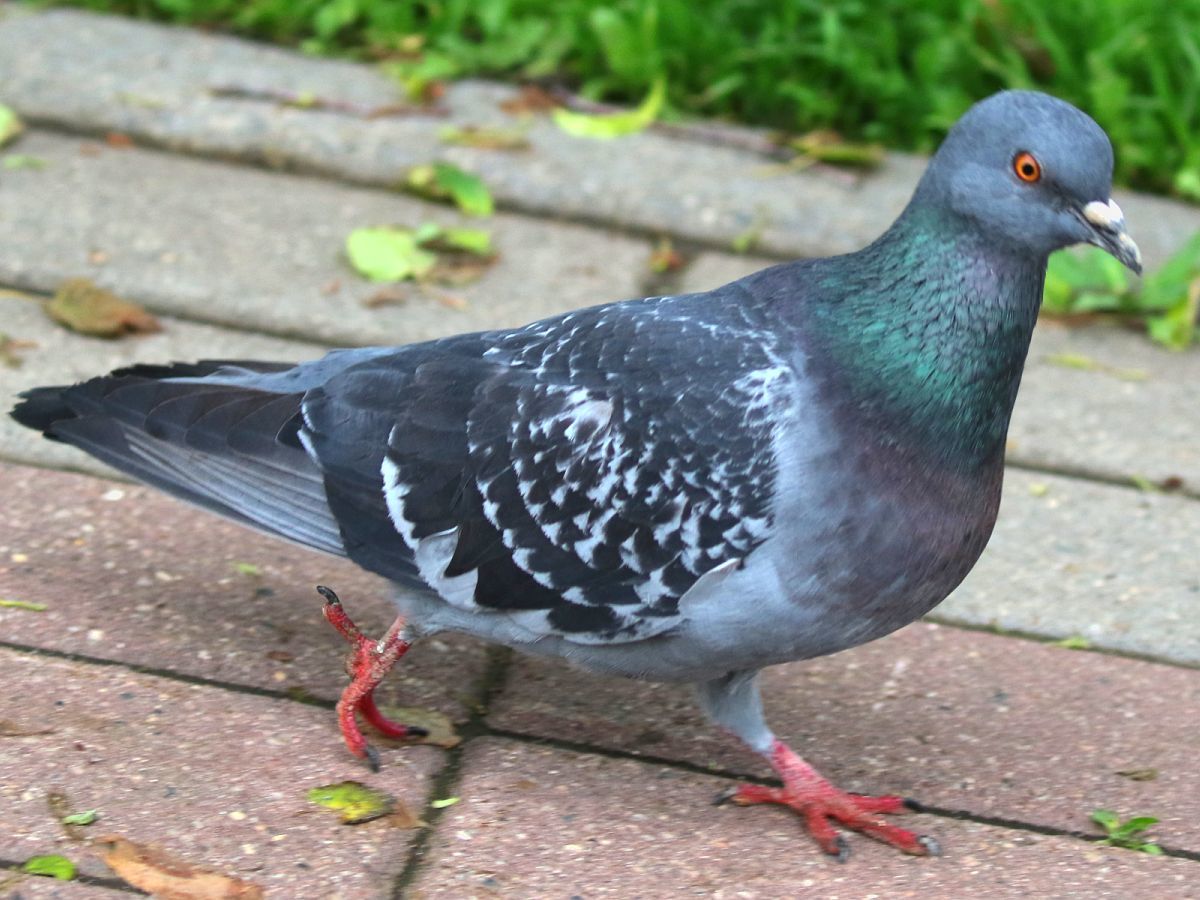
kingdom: Animalia
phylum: Chordata
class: Aves
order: Columbiformes
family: Columbidae
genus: Columba
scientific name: Columba livia
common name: Rock pigeon
